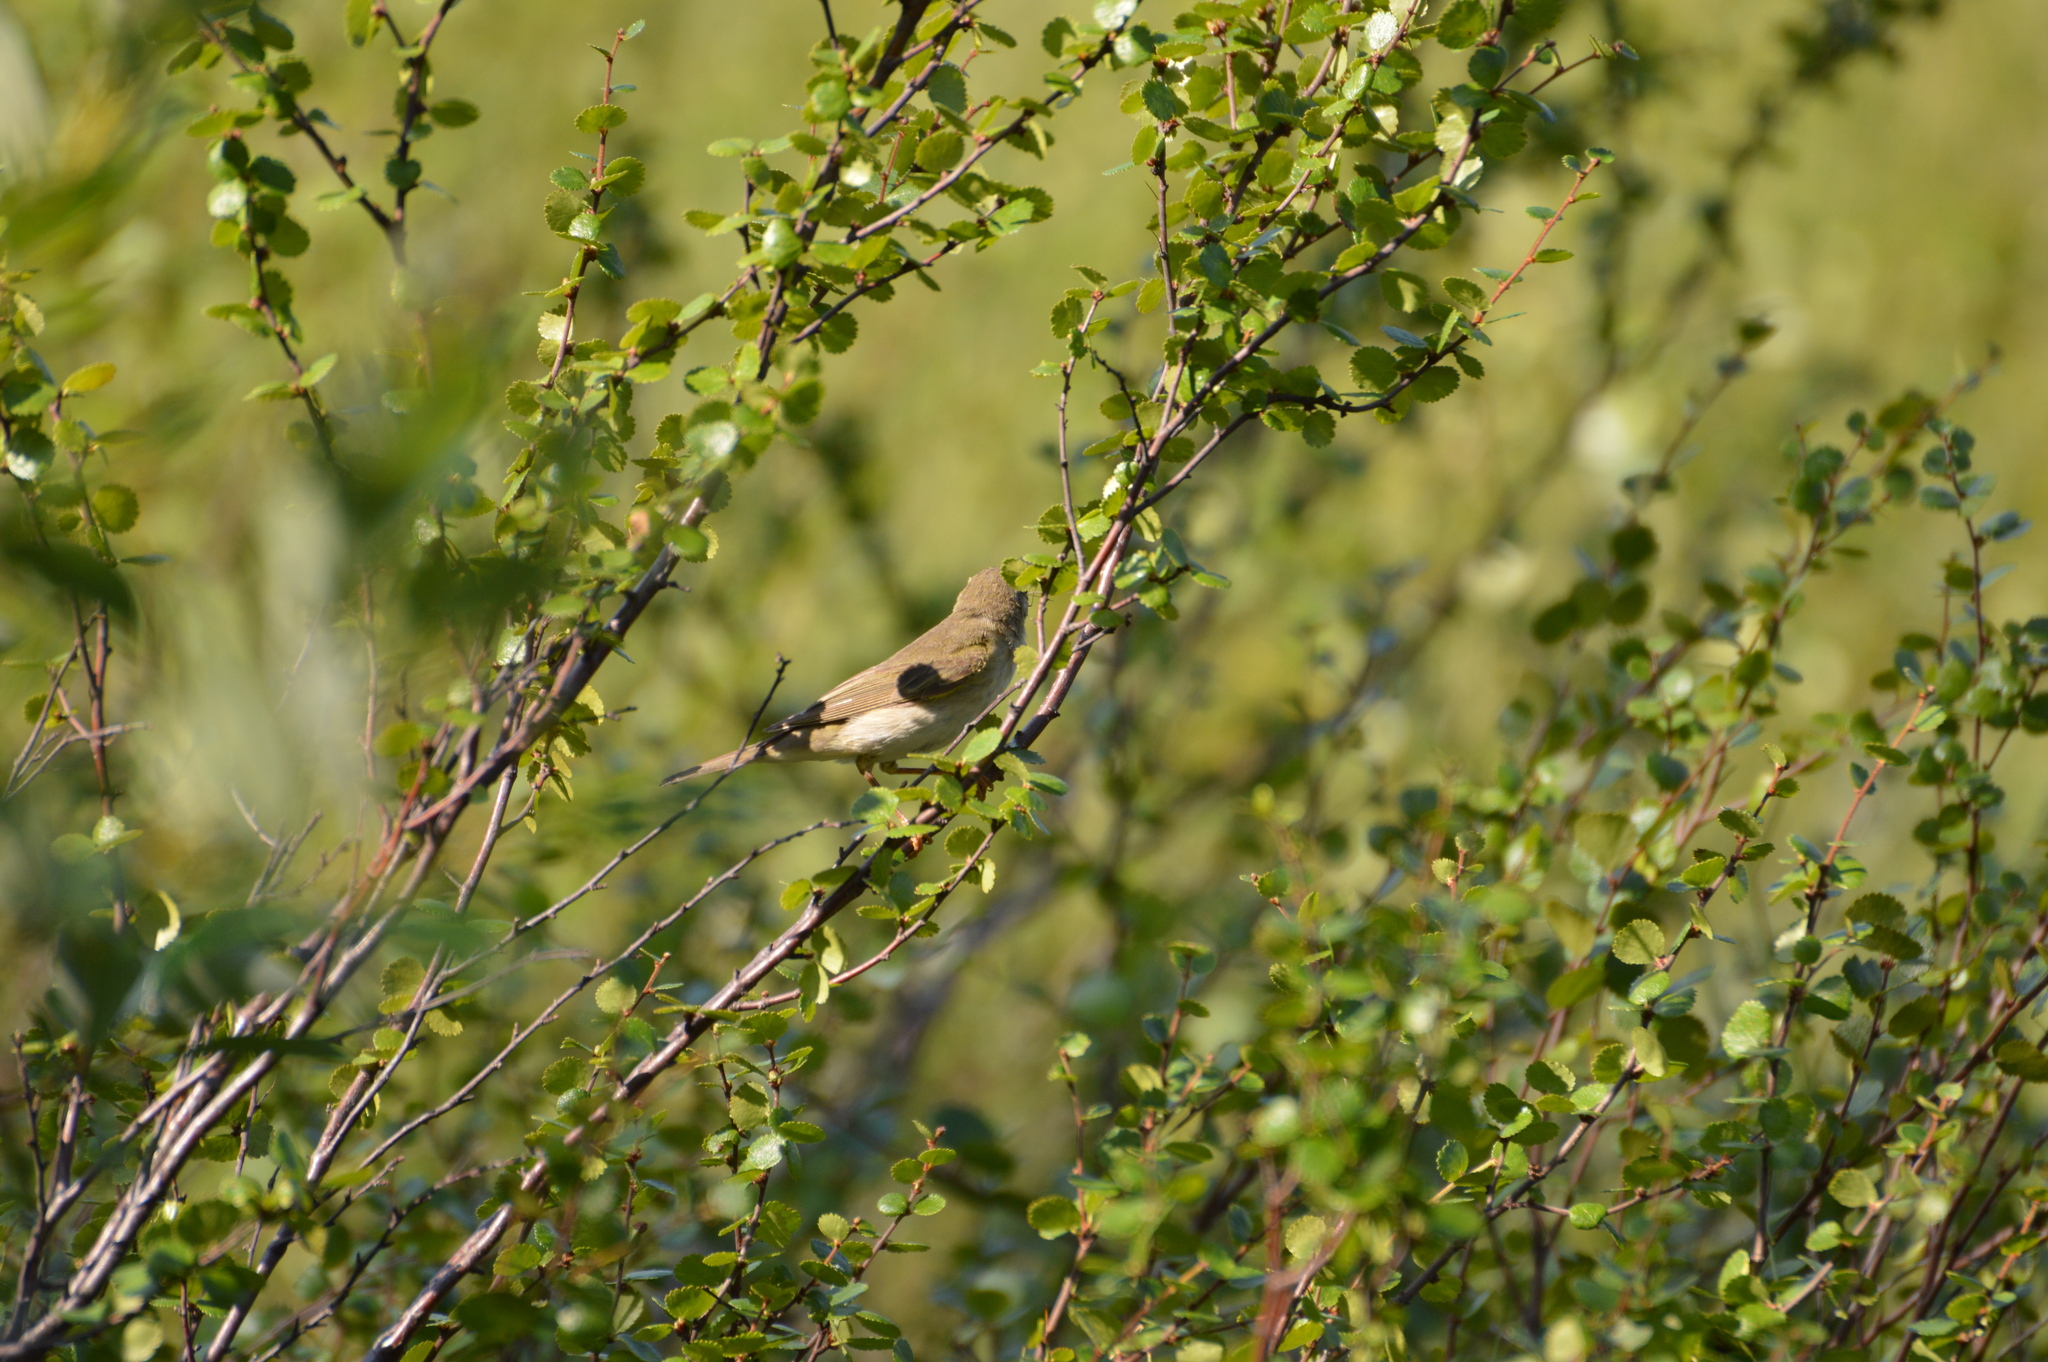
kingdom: Animalia
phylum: Chordata
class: Aves
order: Passeriformes
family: Phylloscopidae
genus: Phylloscopus
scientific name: Phylloscopus trochilus
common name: Willow warbler
